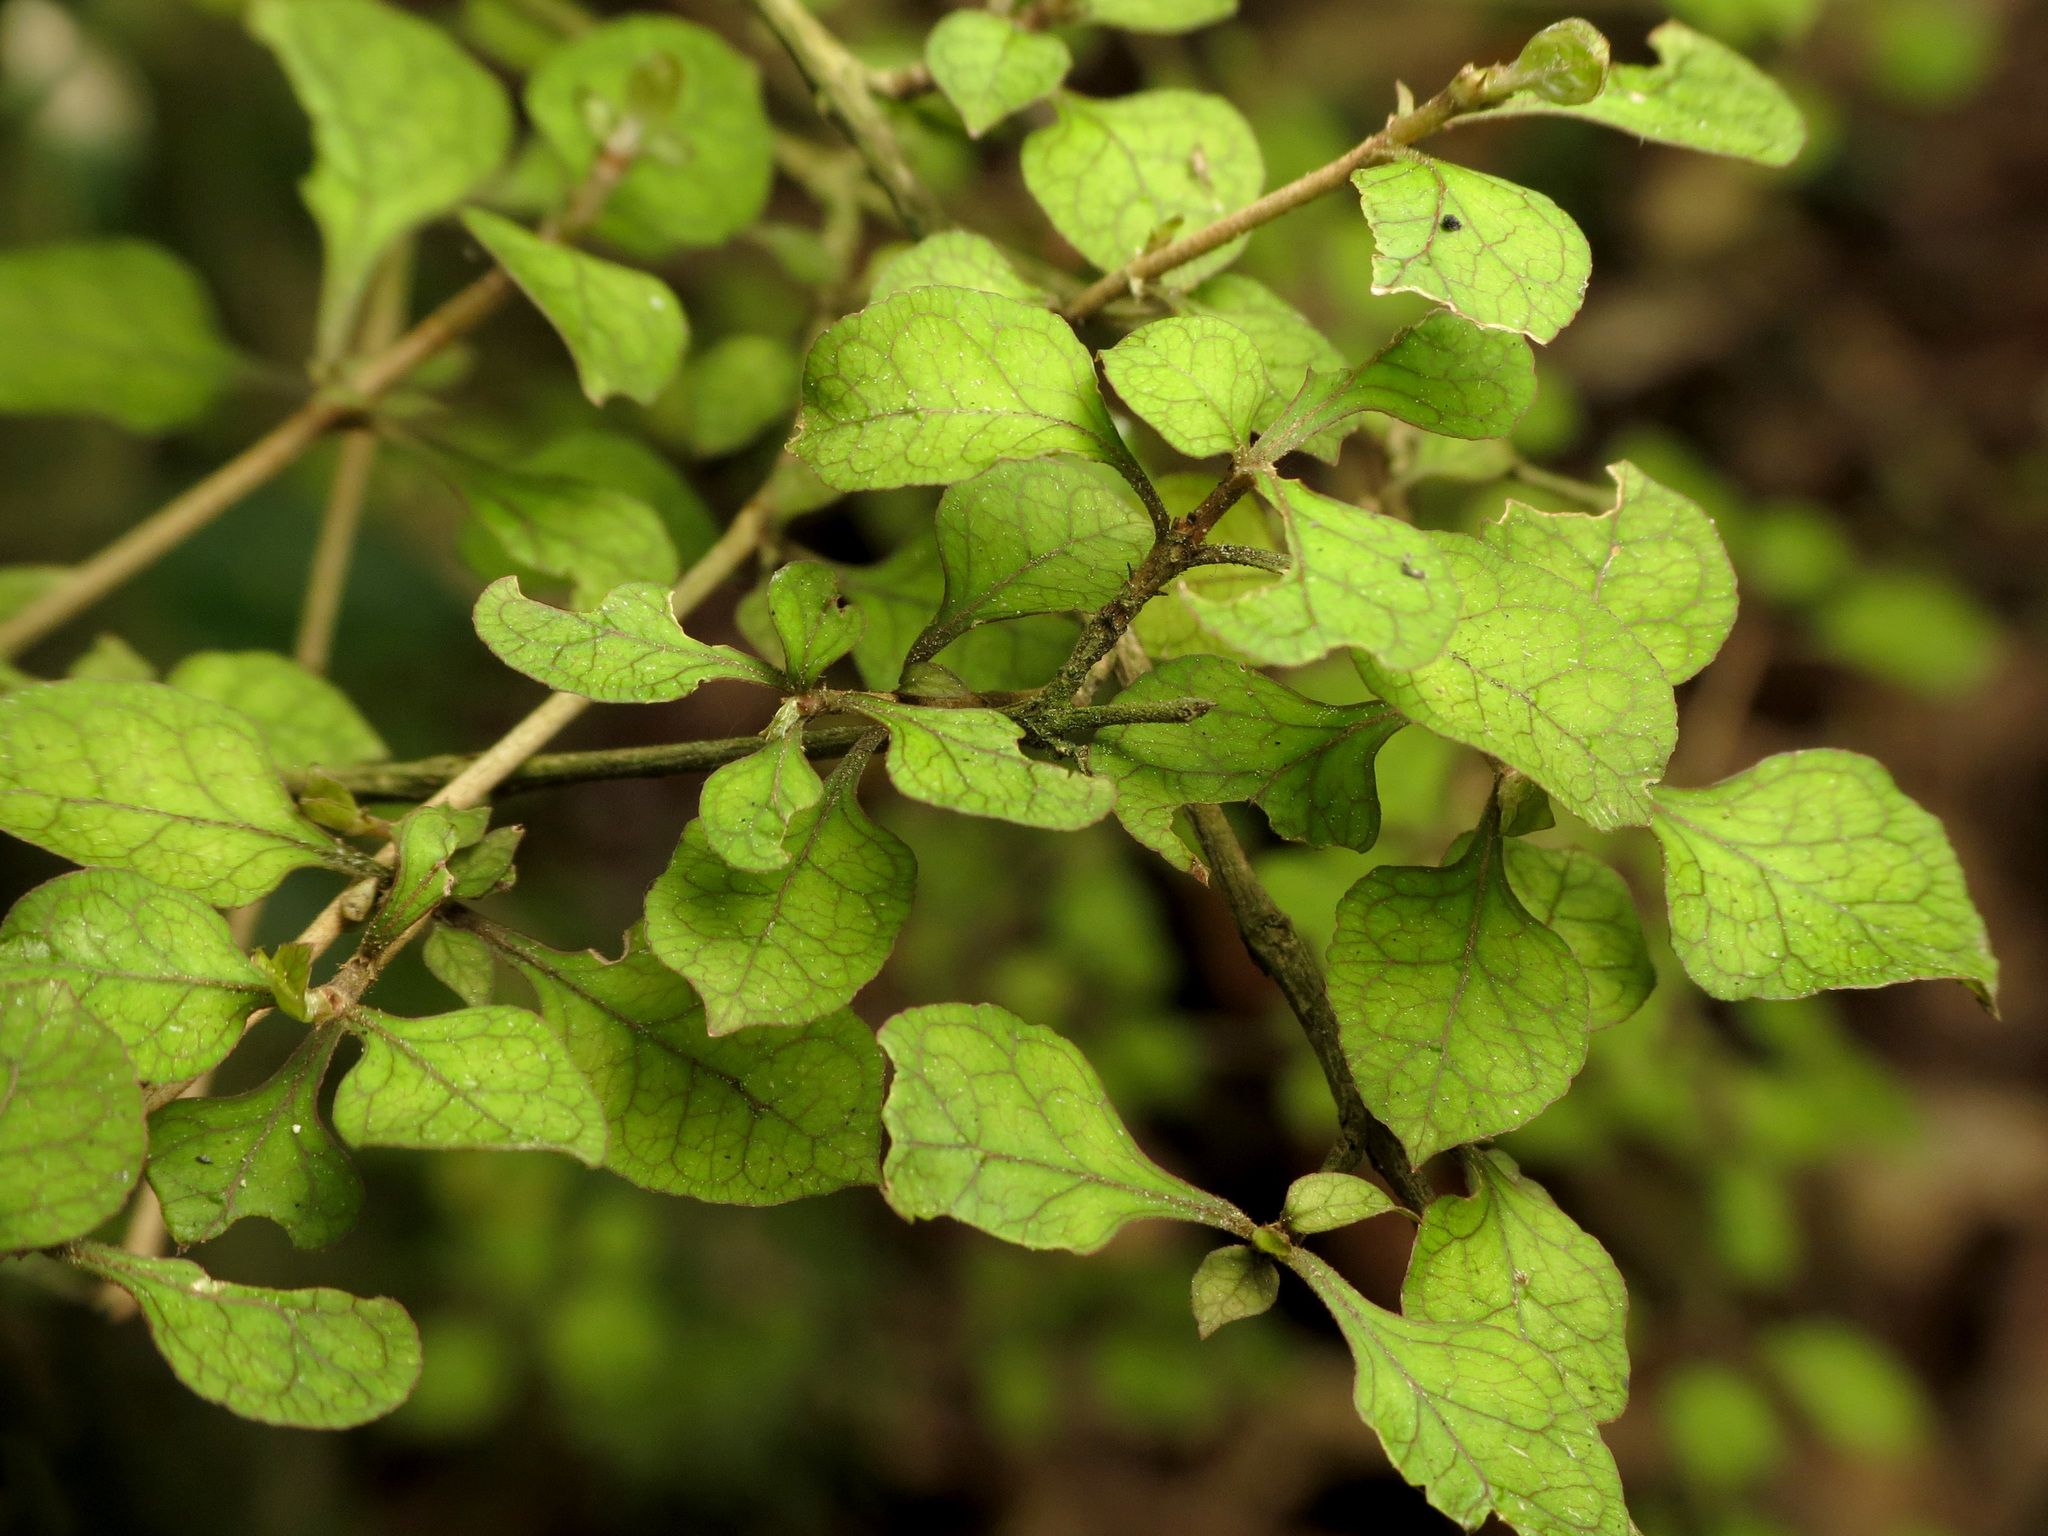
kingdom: Plantae
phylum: Tracheophyta
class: Magnoliopsida
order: Gentianales
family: Rubiaceae
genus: Coprosma
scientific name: Coprosma areolata
